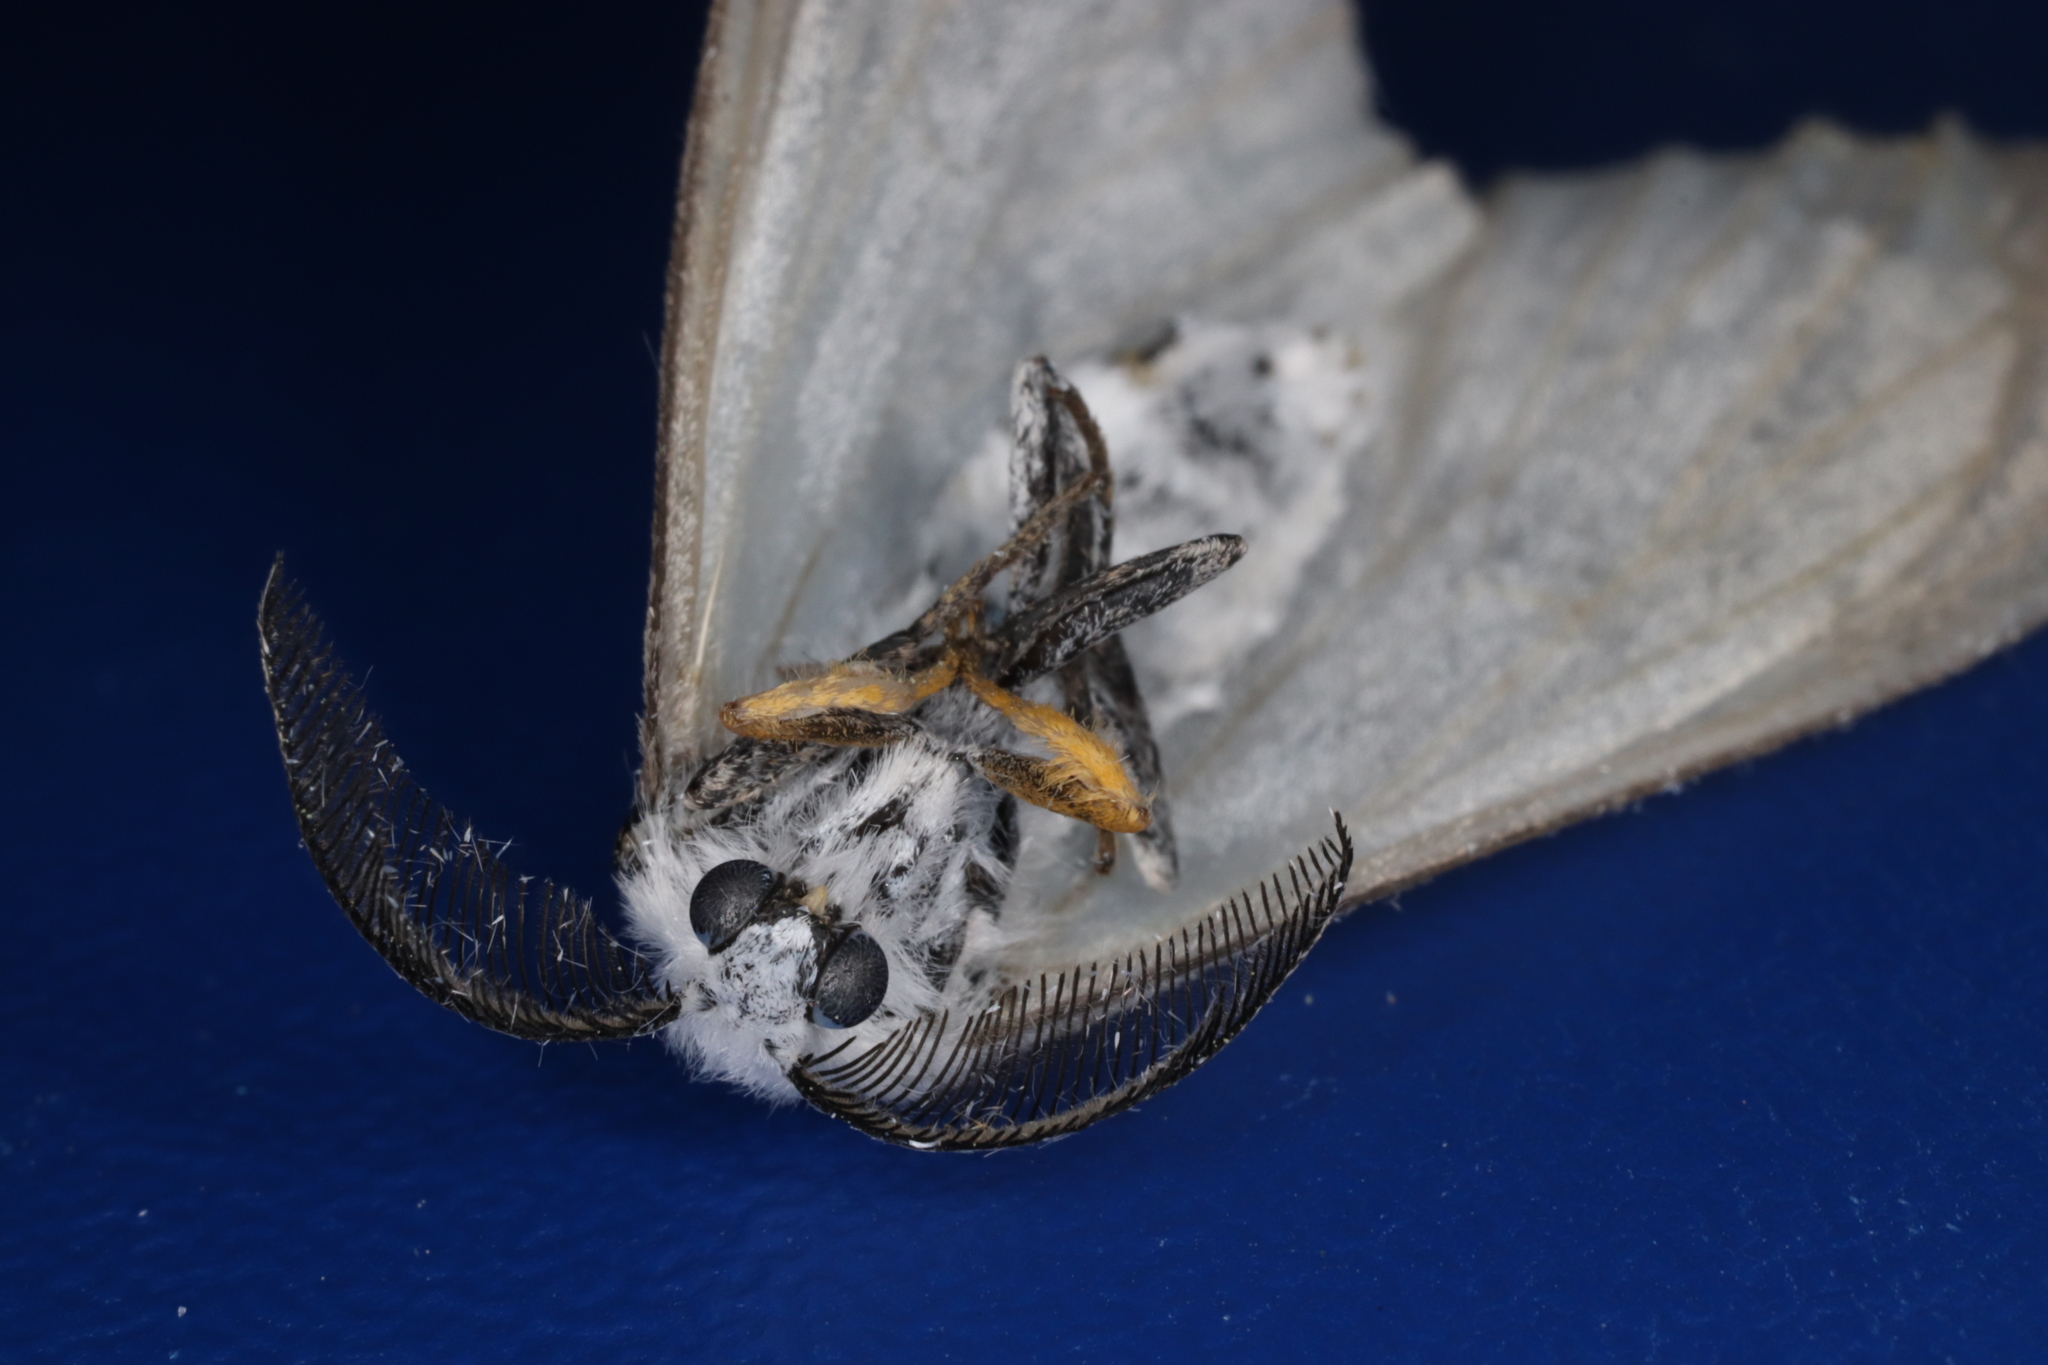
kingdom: Animalia
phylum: Arthropoda
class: Insecta
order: Lepidoptera
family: Erebidae
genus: Ivela
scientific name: Ivela auripes
